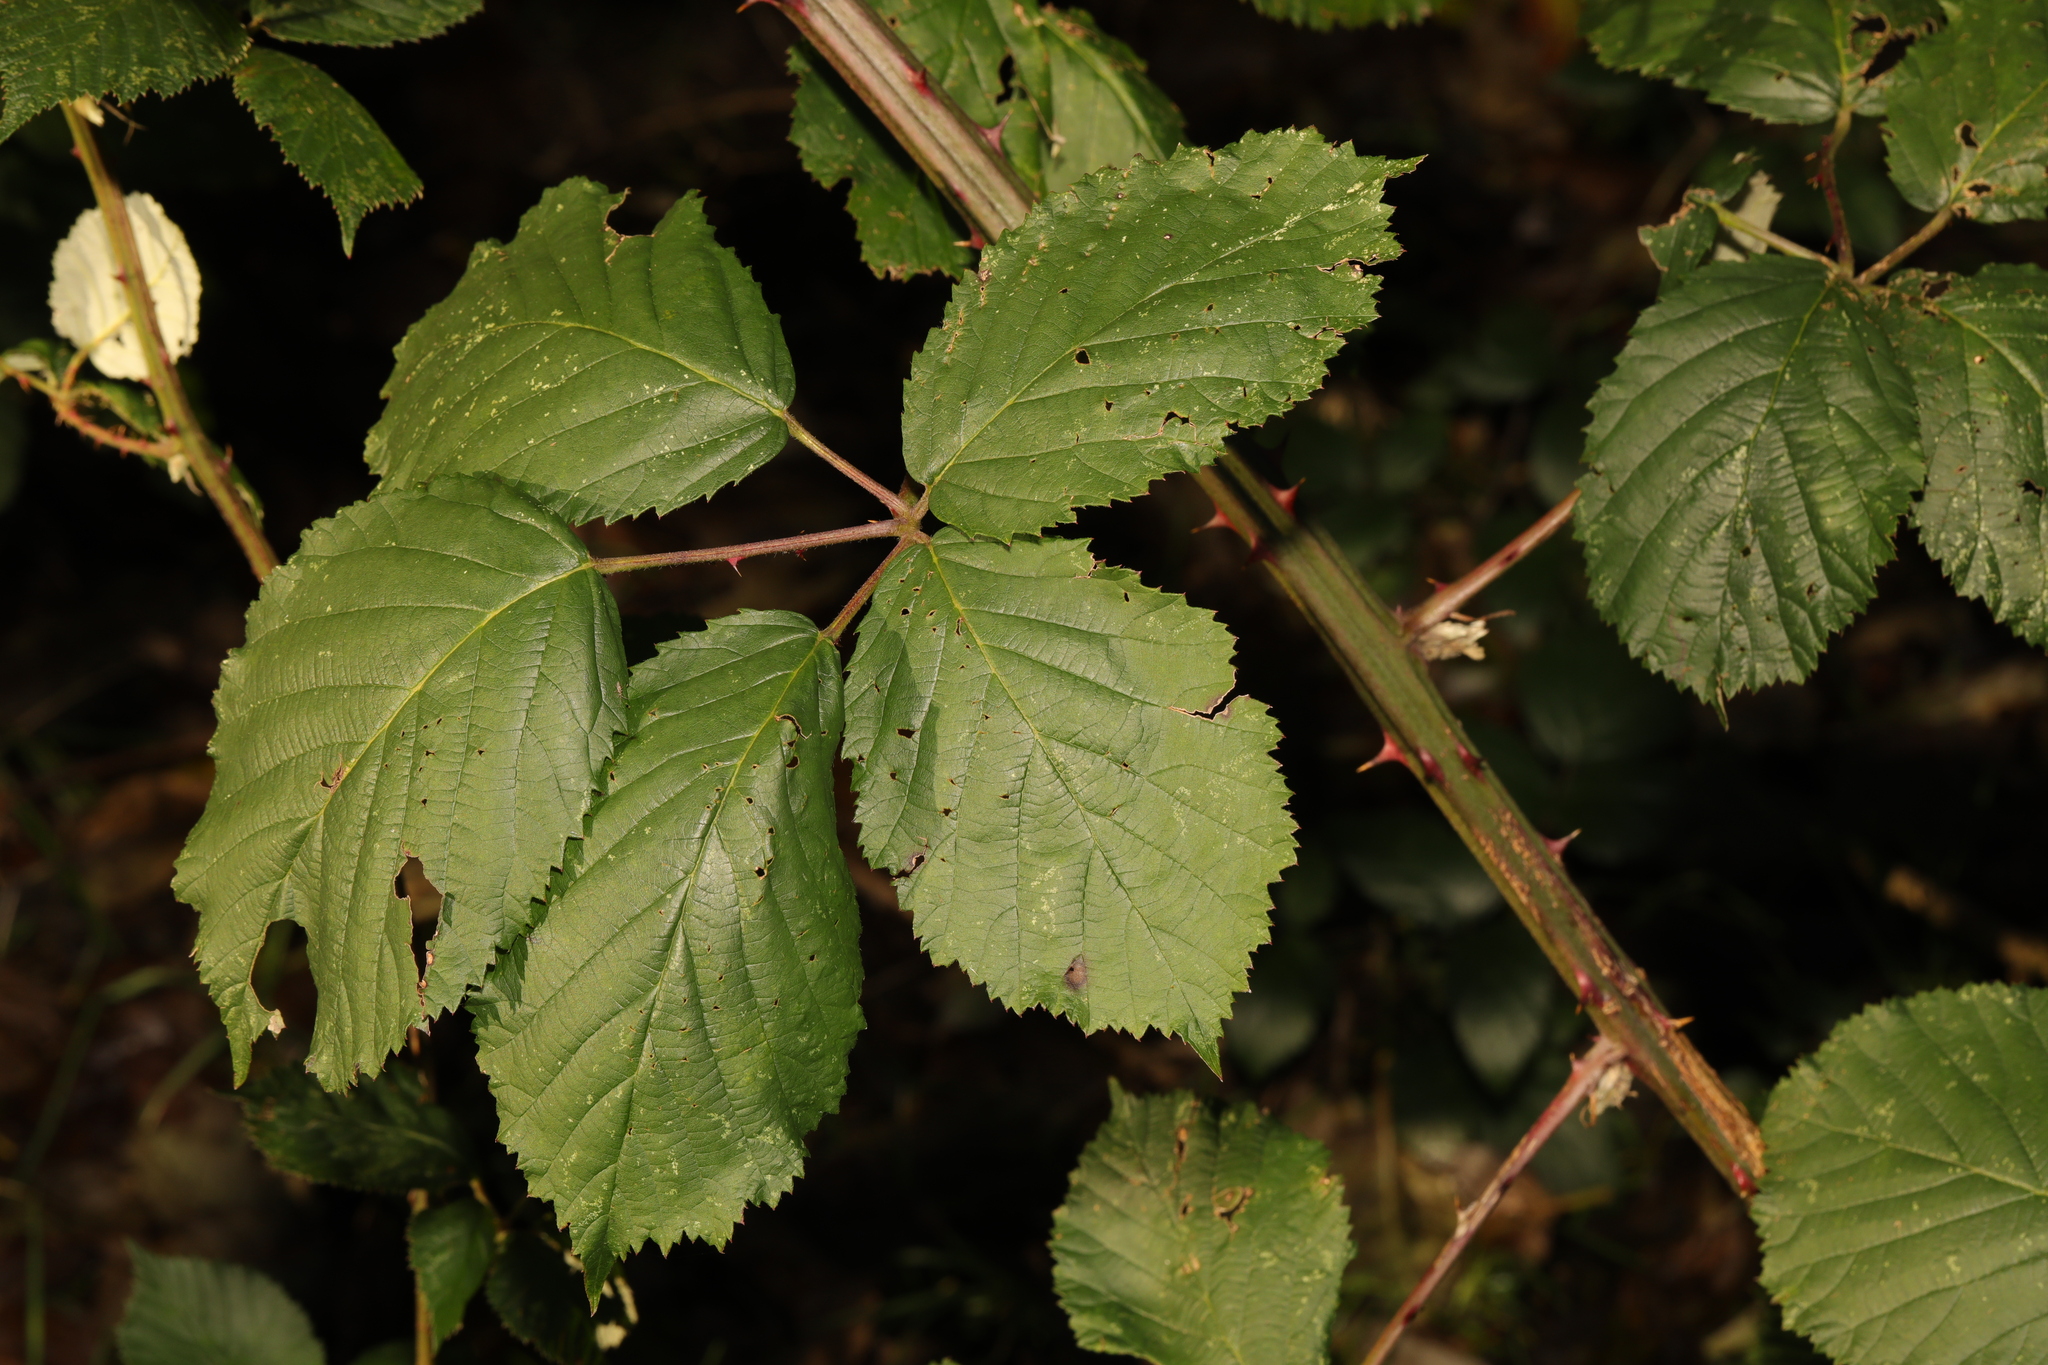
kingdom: Plantae
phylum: Tracheophyta
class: Magnoliopsida
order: Rosales
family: Rosaceae
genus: Rubus
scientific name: Rubus armeniacus
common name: Himalayan blackberry
